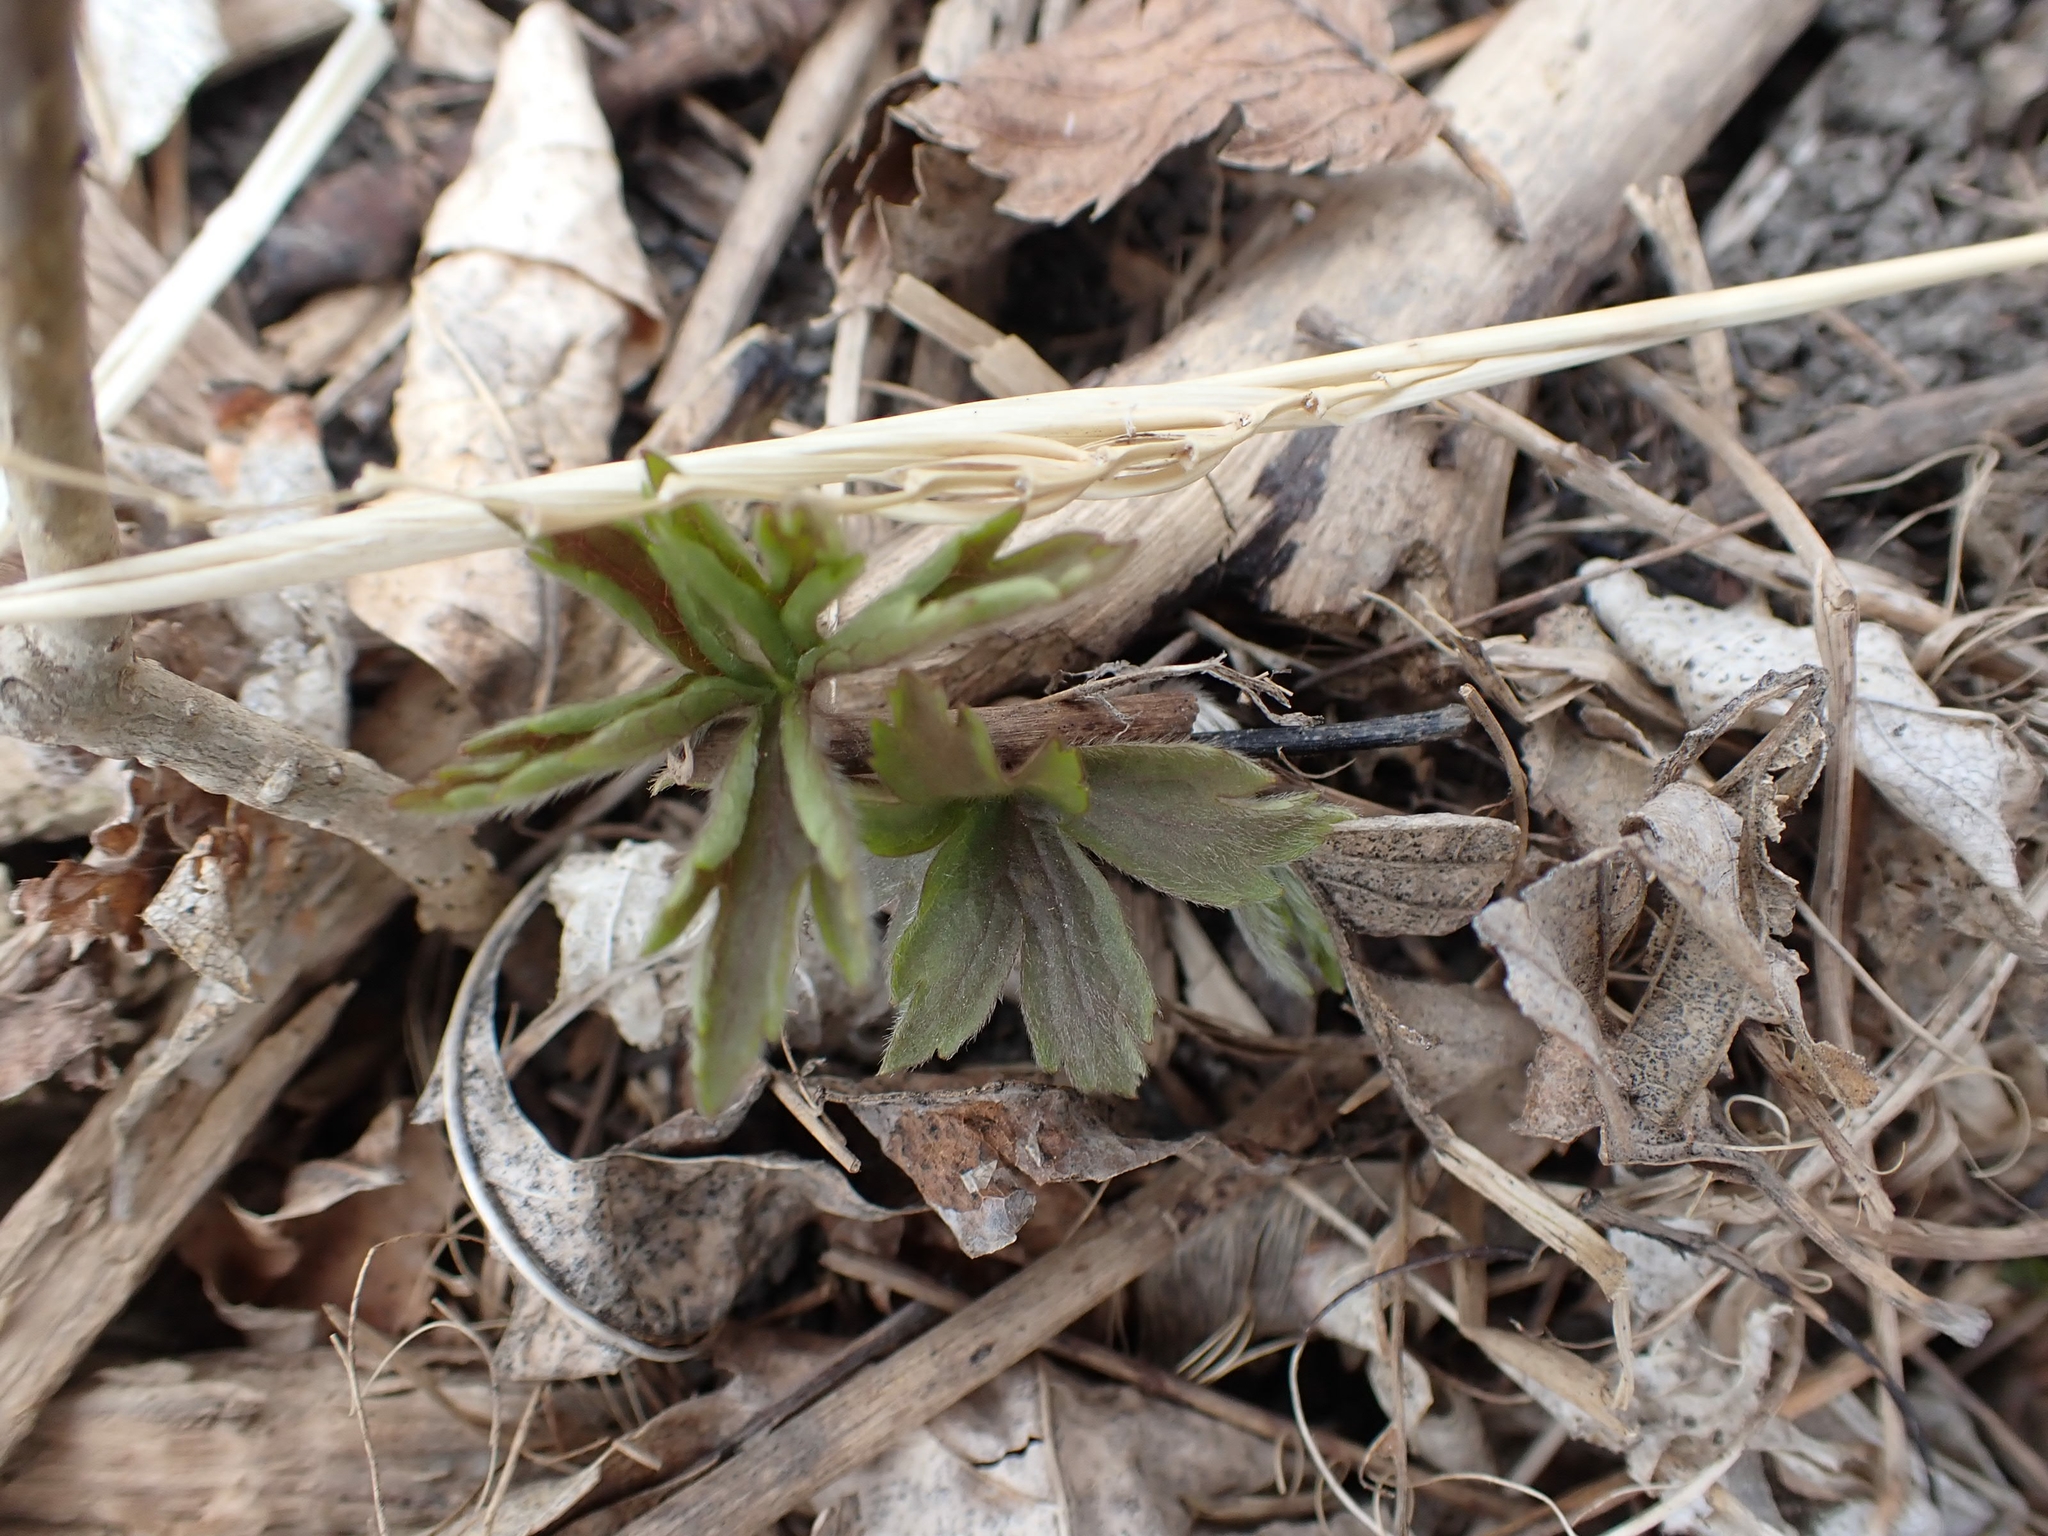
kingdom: Plantae
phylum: Tracheophyta
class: Magnoliopsida
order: Ranunculales
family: Ranunculaceae
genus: Anemonastrum
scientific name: Anemonastrum canadense
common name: Canada anemone
